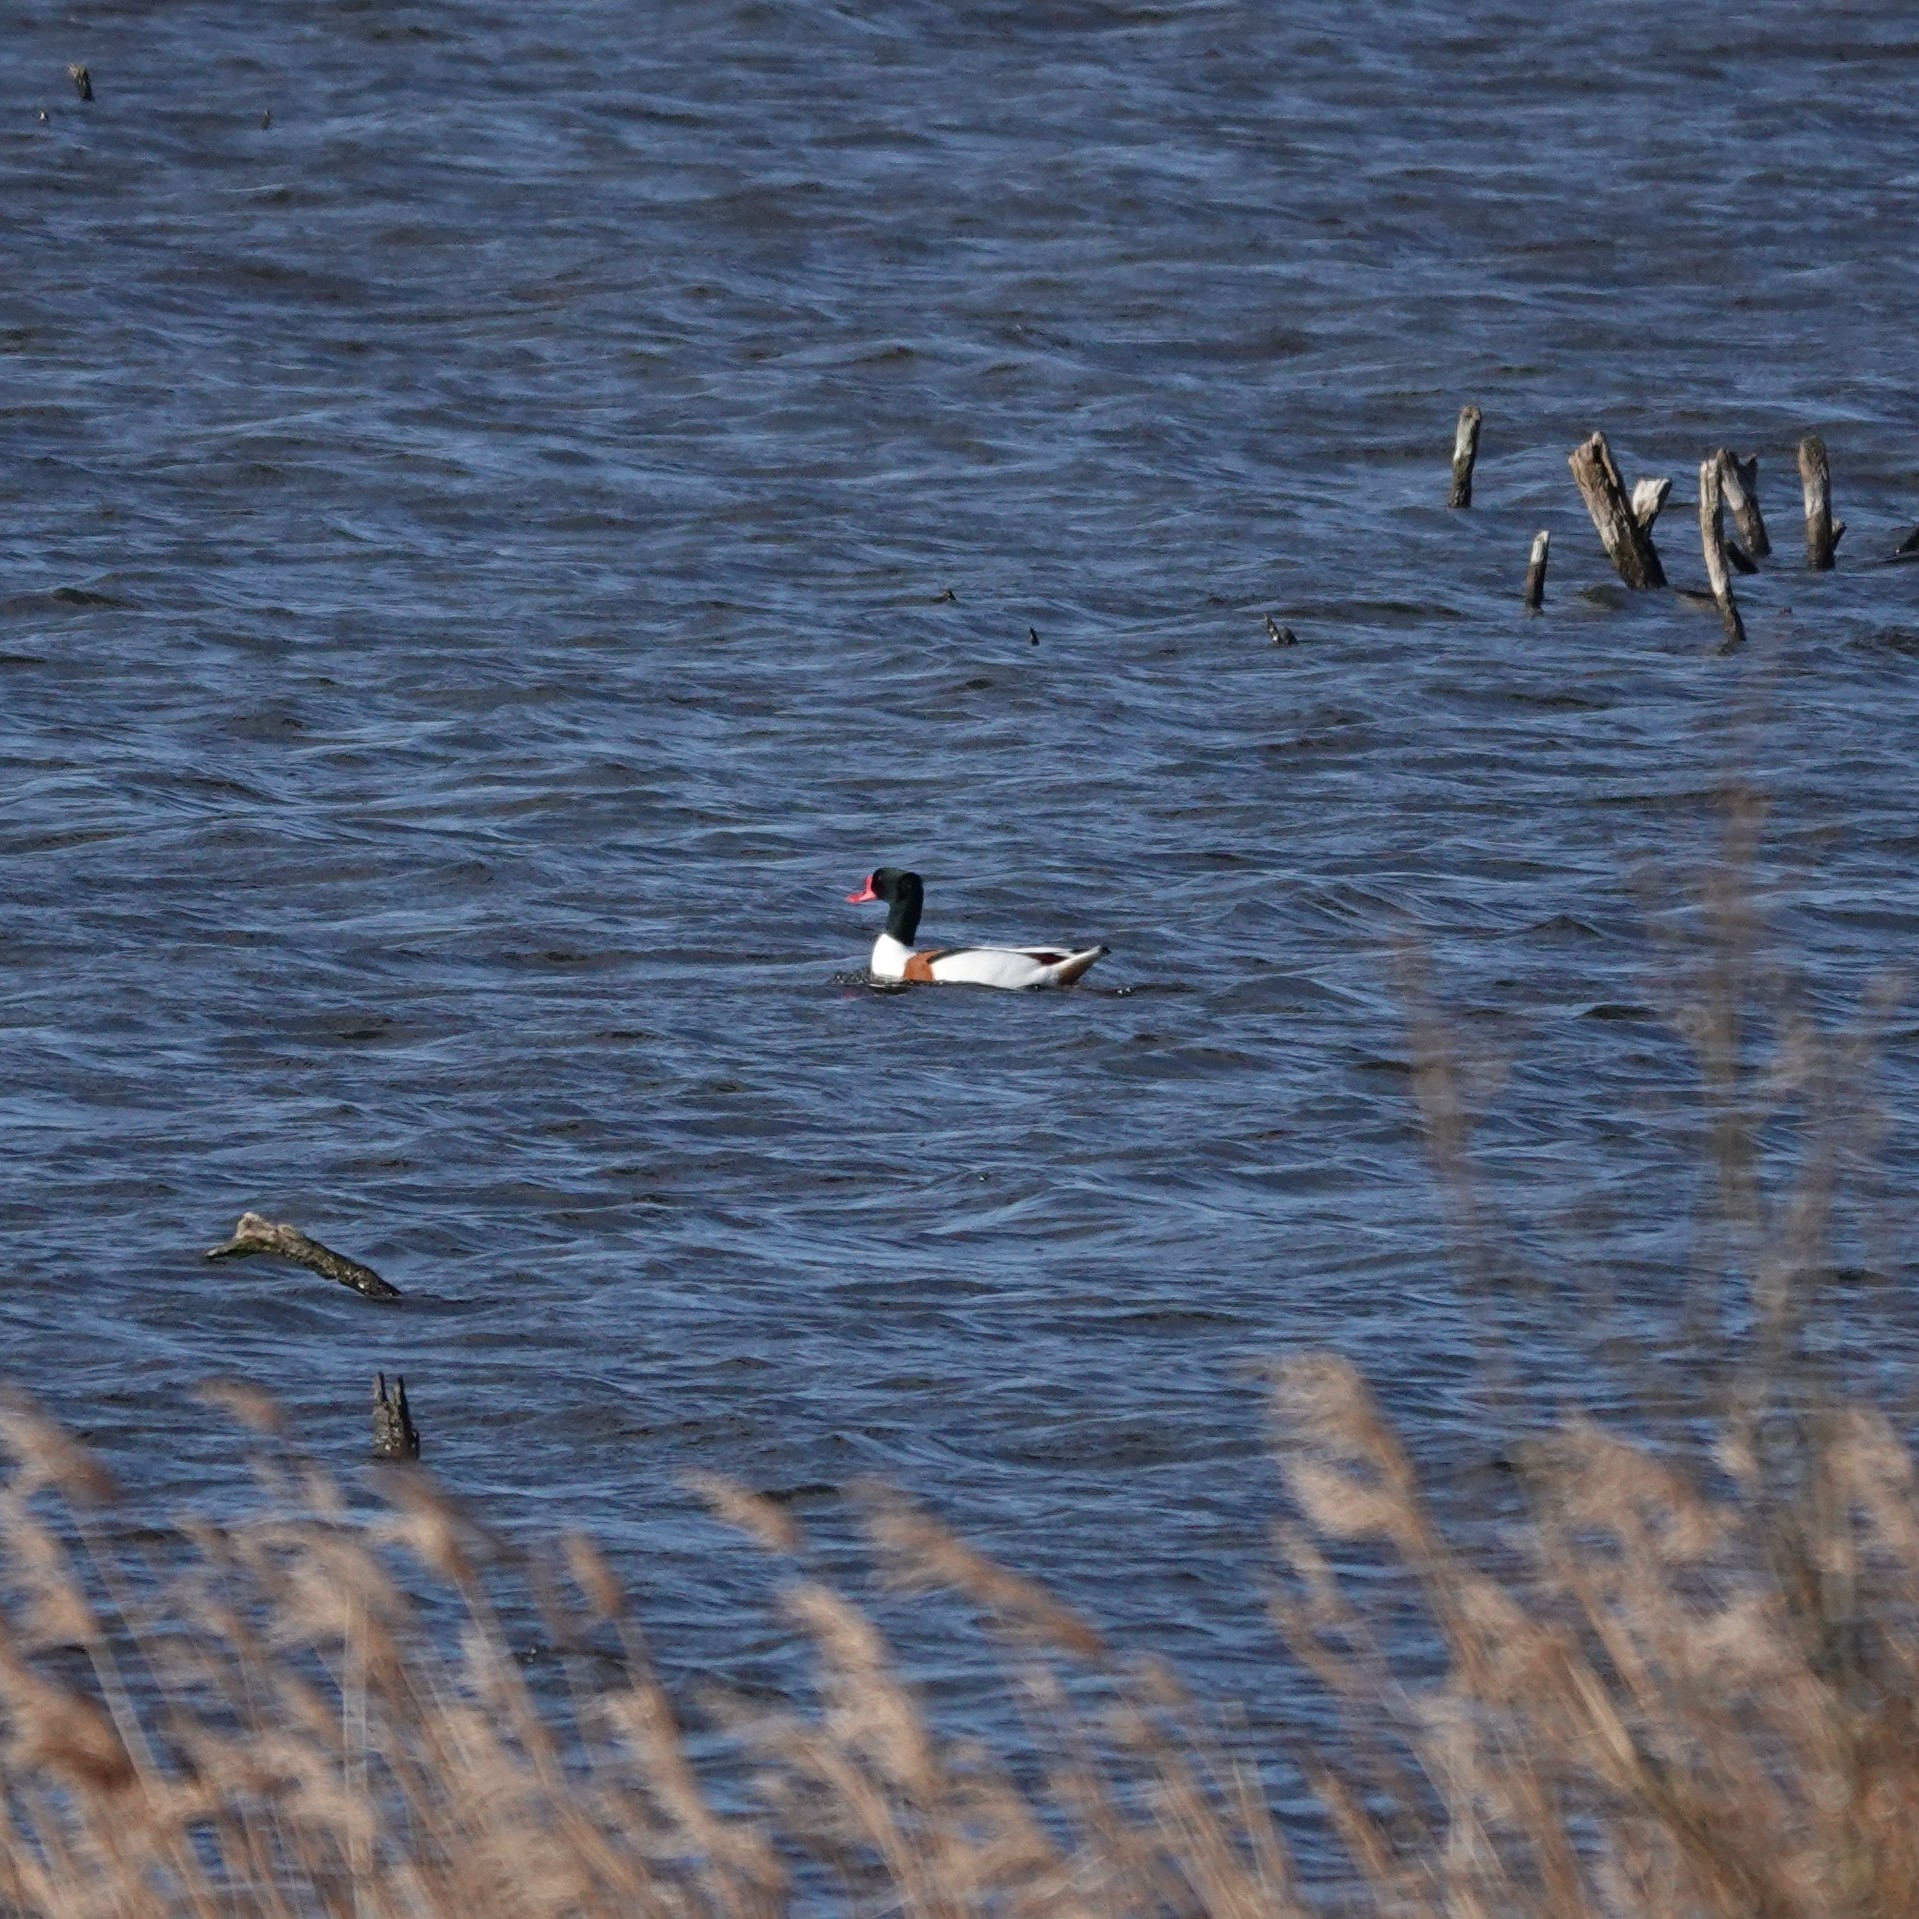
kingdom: Animalia
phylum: Chordata
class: Aves
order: Anseriformes
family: Anatidae
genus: Tadorna
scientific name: Tadorna tadorna
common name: Common shelduck
